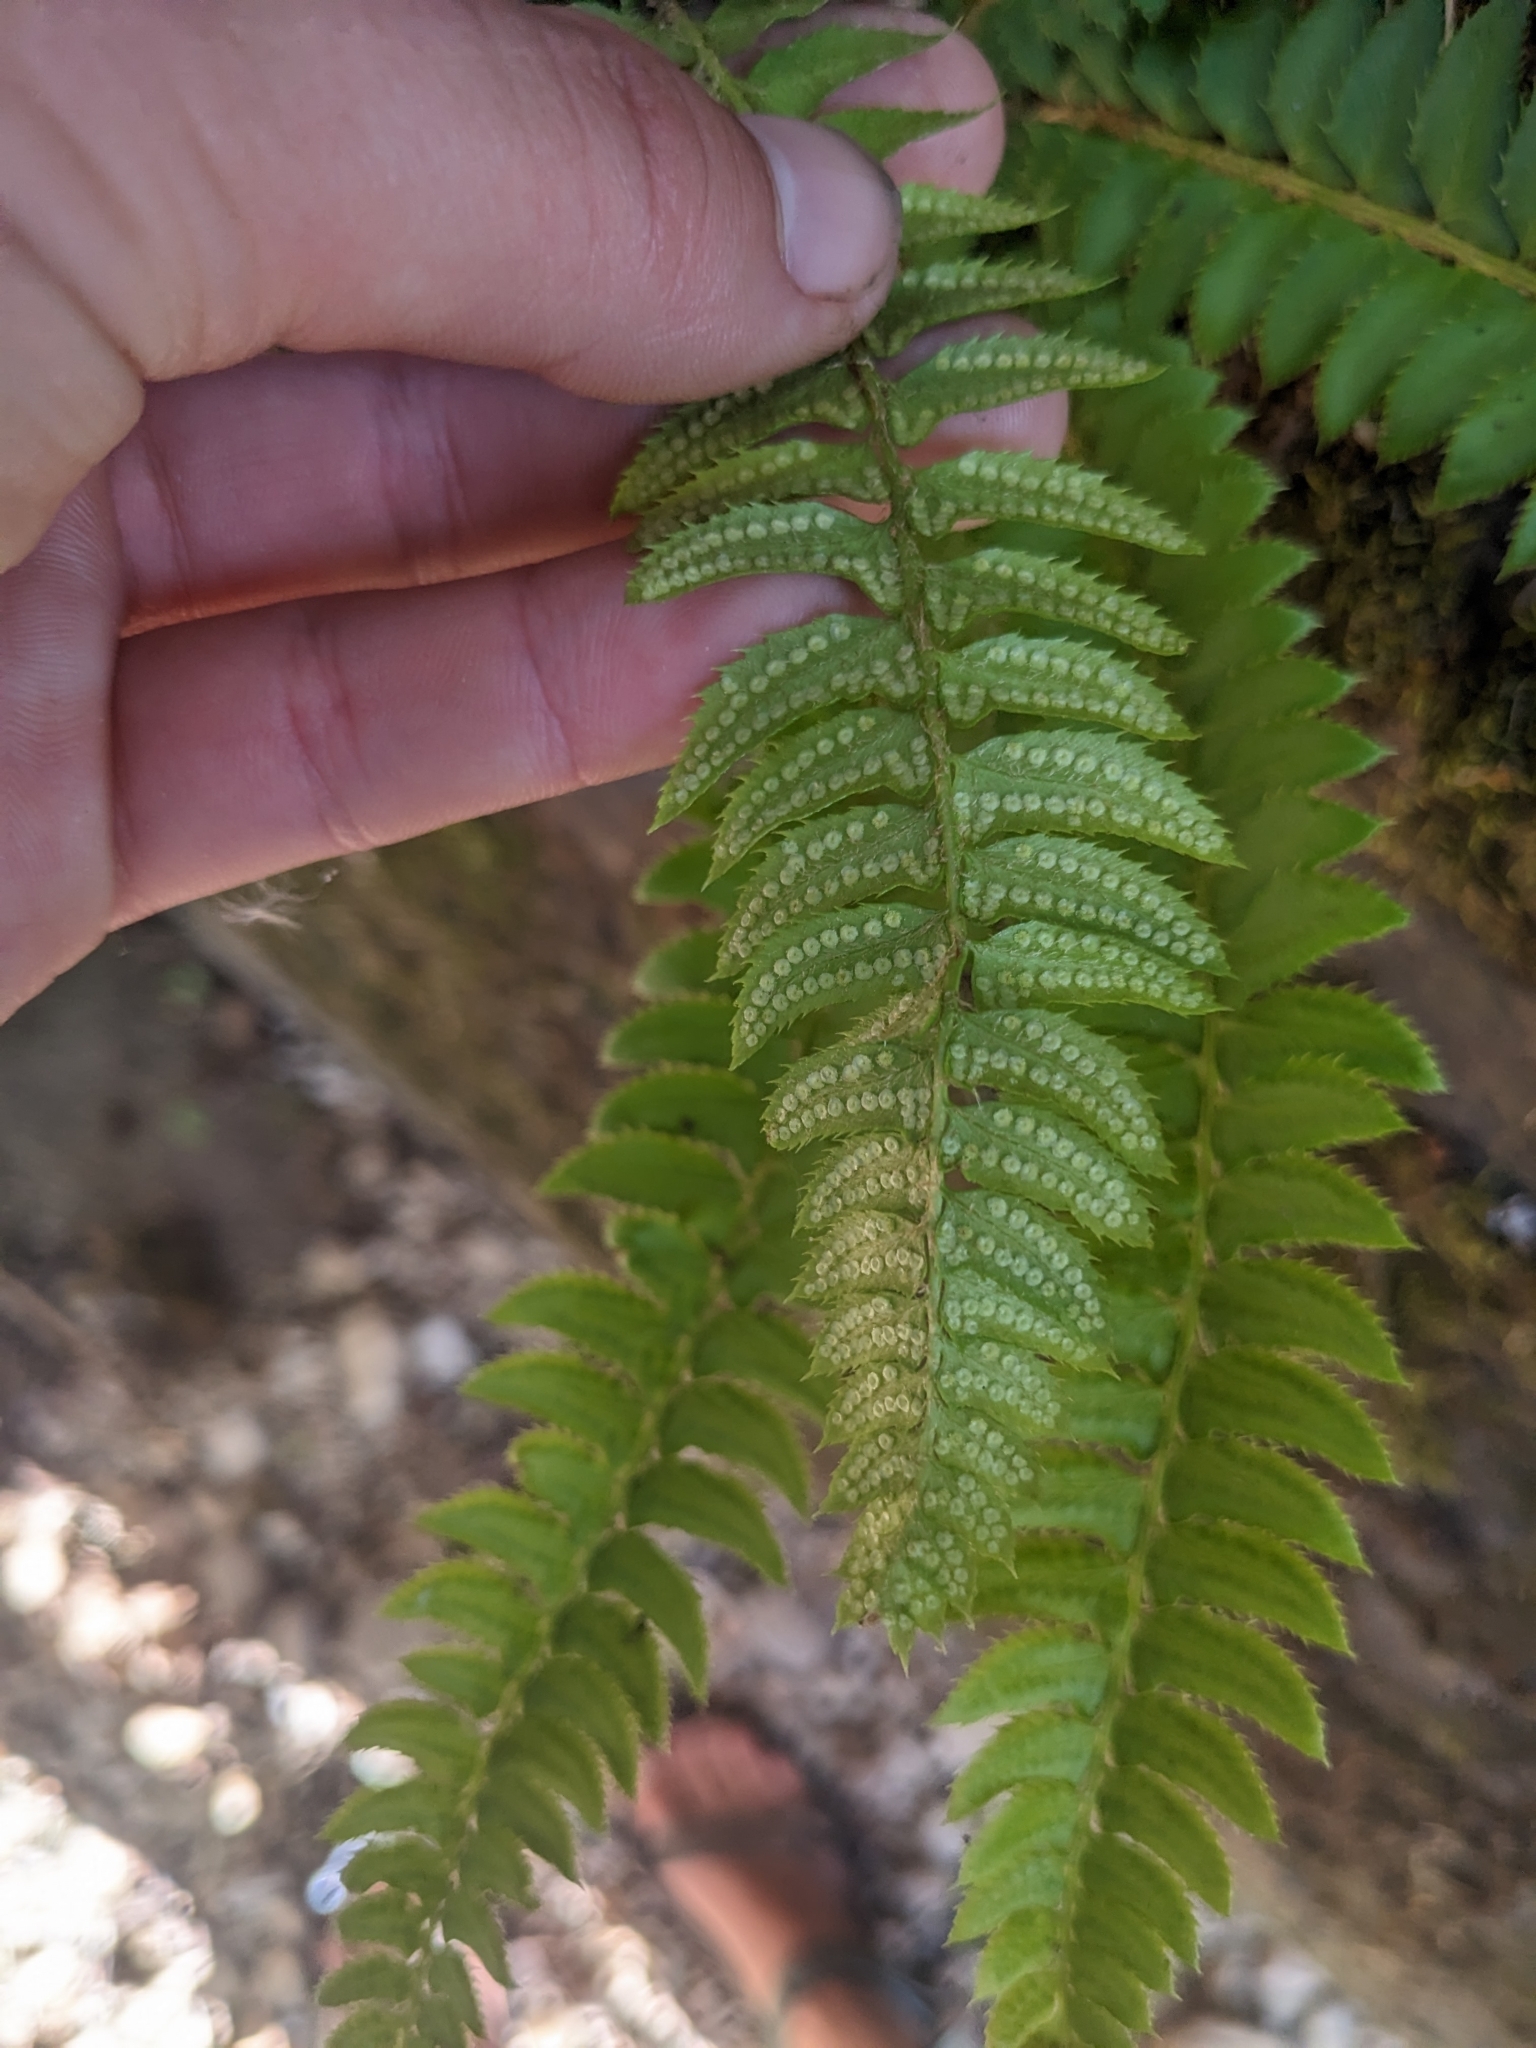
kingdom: Plantae
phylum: Tracheophyta
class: Polypodiopsida
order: Polypodiales
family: Dryopteridaceae
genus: Polystichum
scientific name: Polystichum lonchitis
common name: Holly fern
